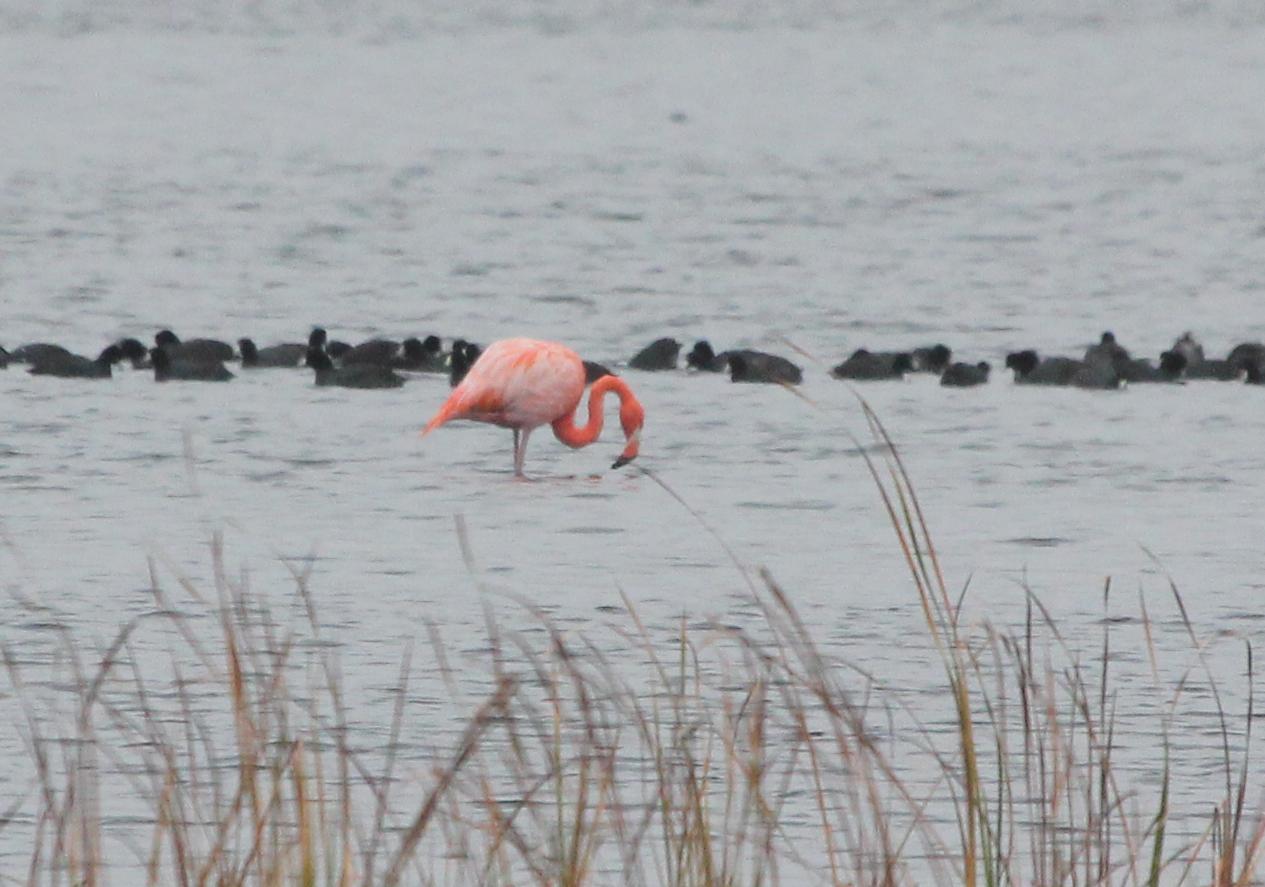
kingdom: Animalia
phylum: Chordata
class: Aves
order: Phoenicopteriformes
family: Phoenicopteridae
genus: Phoenicopterus
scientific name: Phoenicopterus ruber
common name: American flamingo
